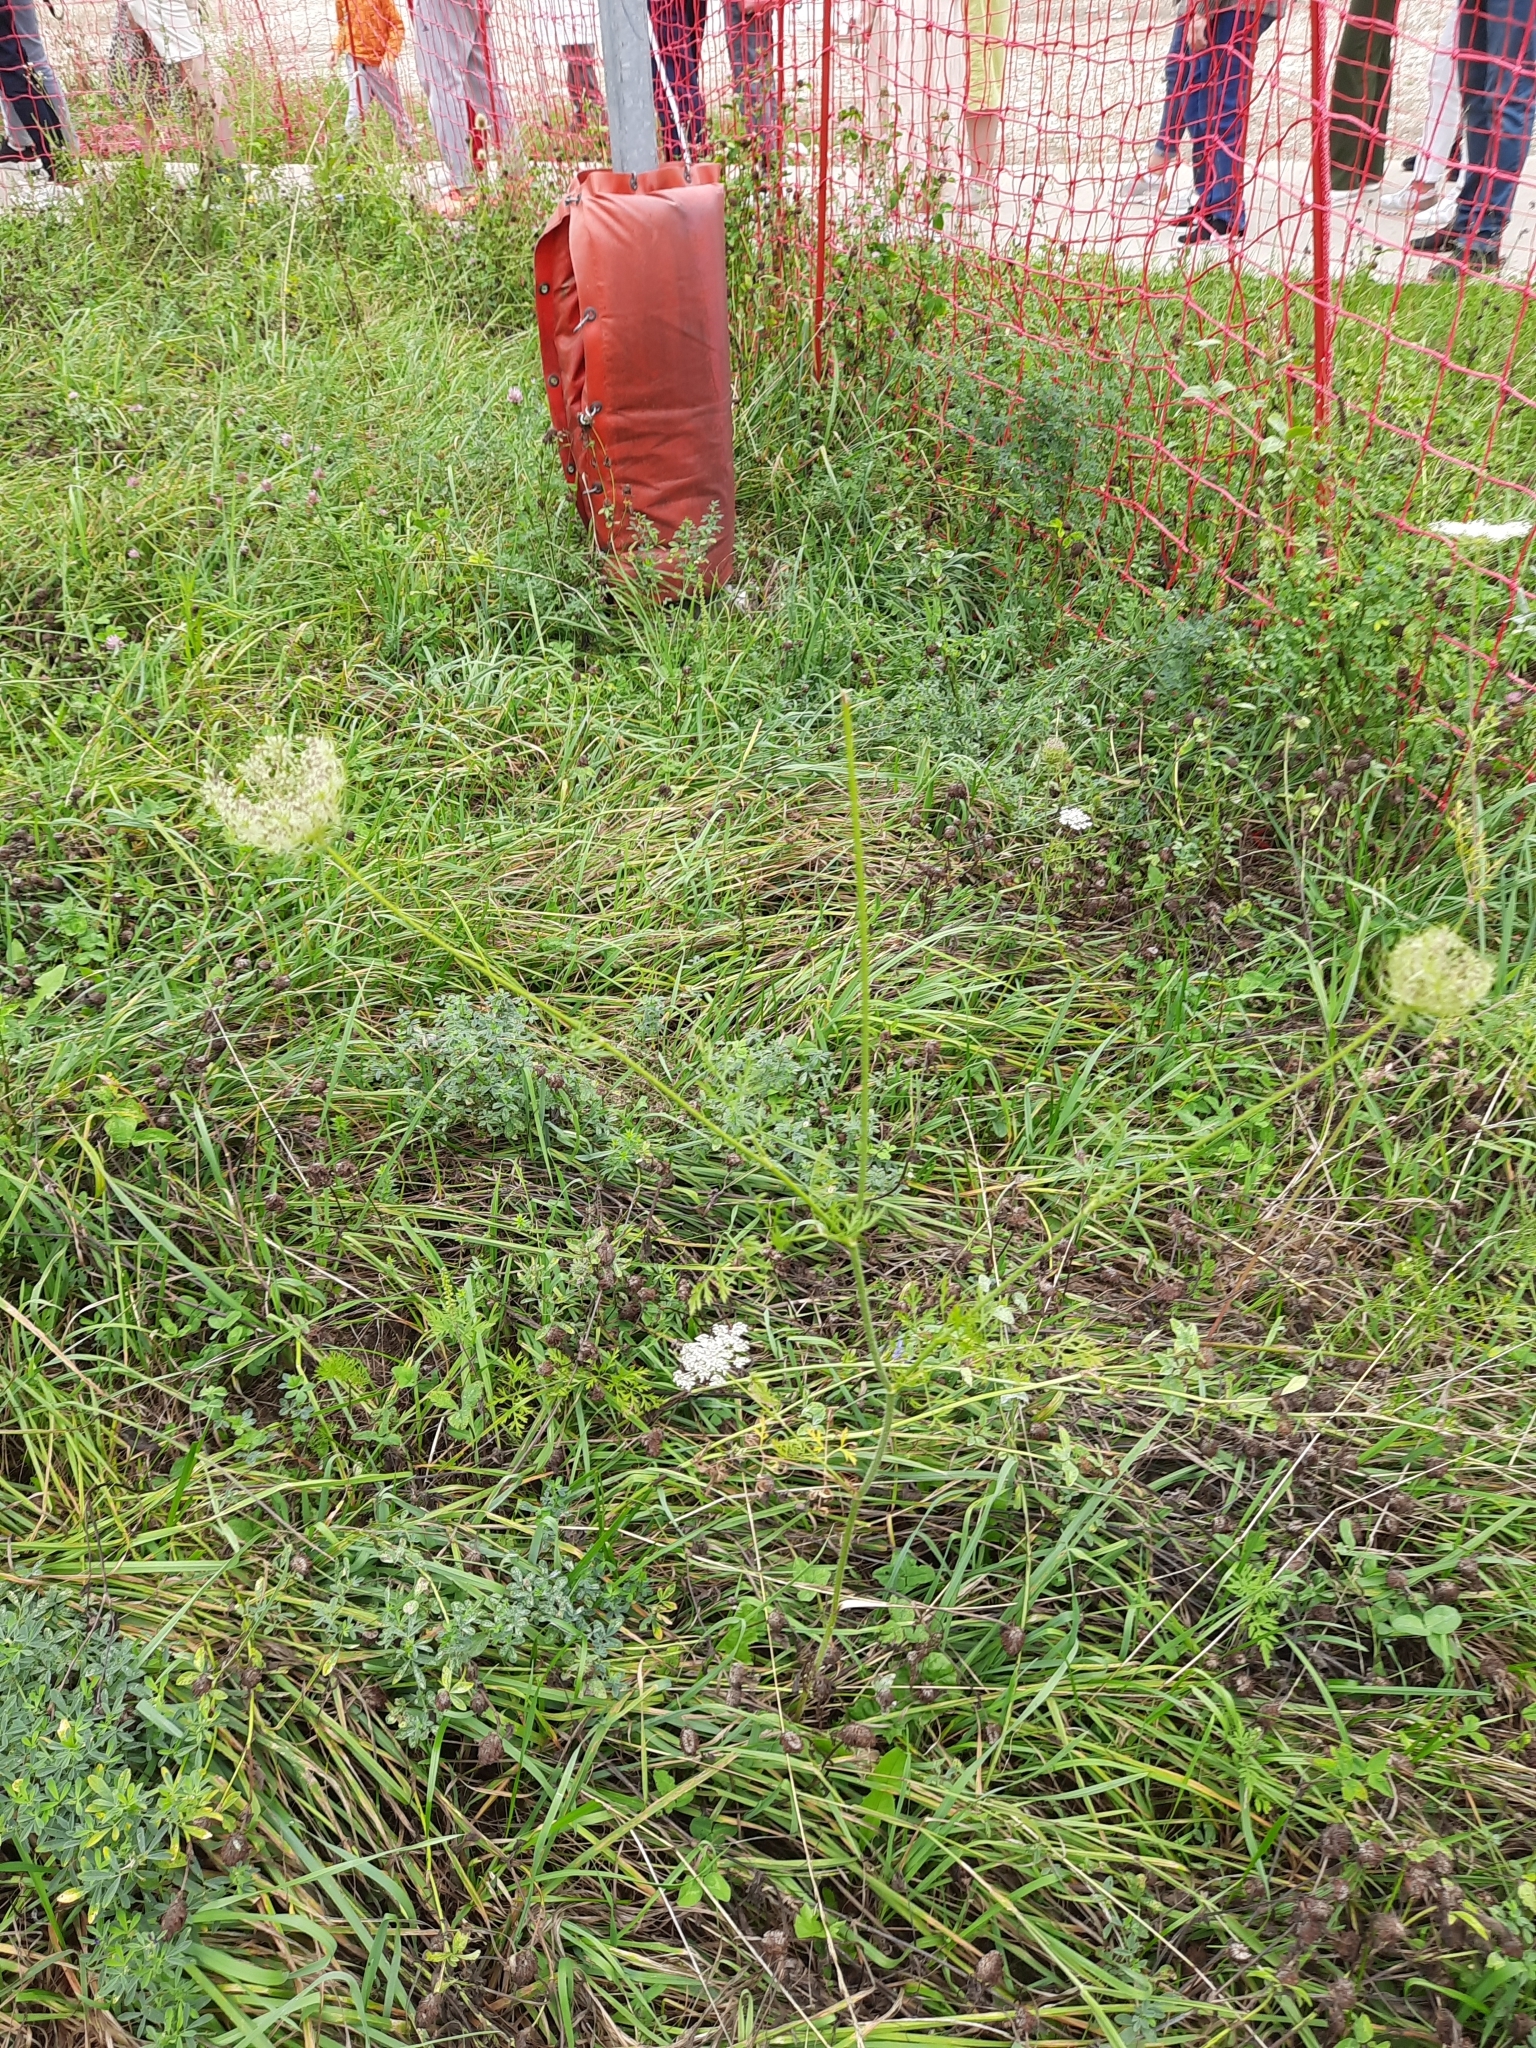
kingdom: Plantae
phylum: Tracheophyta
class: Magnoliopsida
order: Apiales
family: Apiaceae
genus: Daucus
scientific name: Daucus carota
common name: Wild carrot
